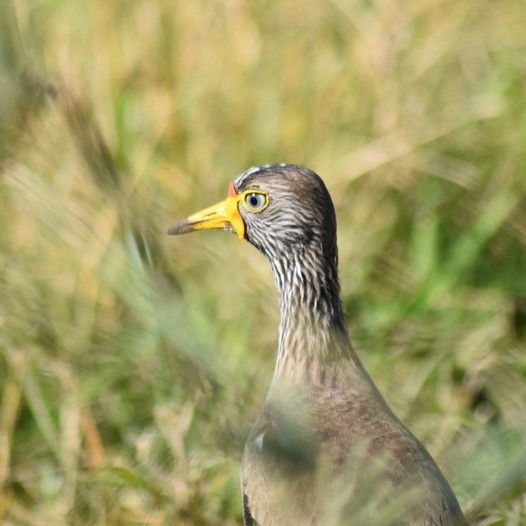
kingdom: Animalia
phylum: Chordata
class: Aves
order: Charadriiformes
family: Charadriidae
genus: Vanellus
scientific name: Vanellus senegallus
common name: African wattled lapwing
